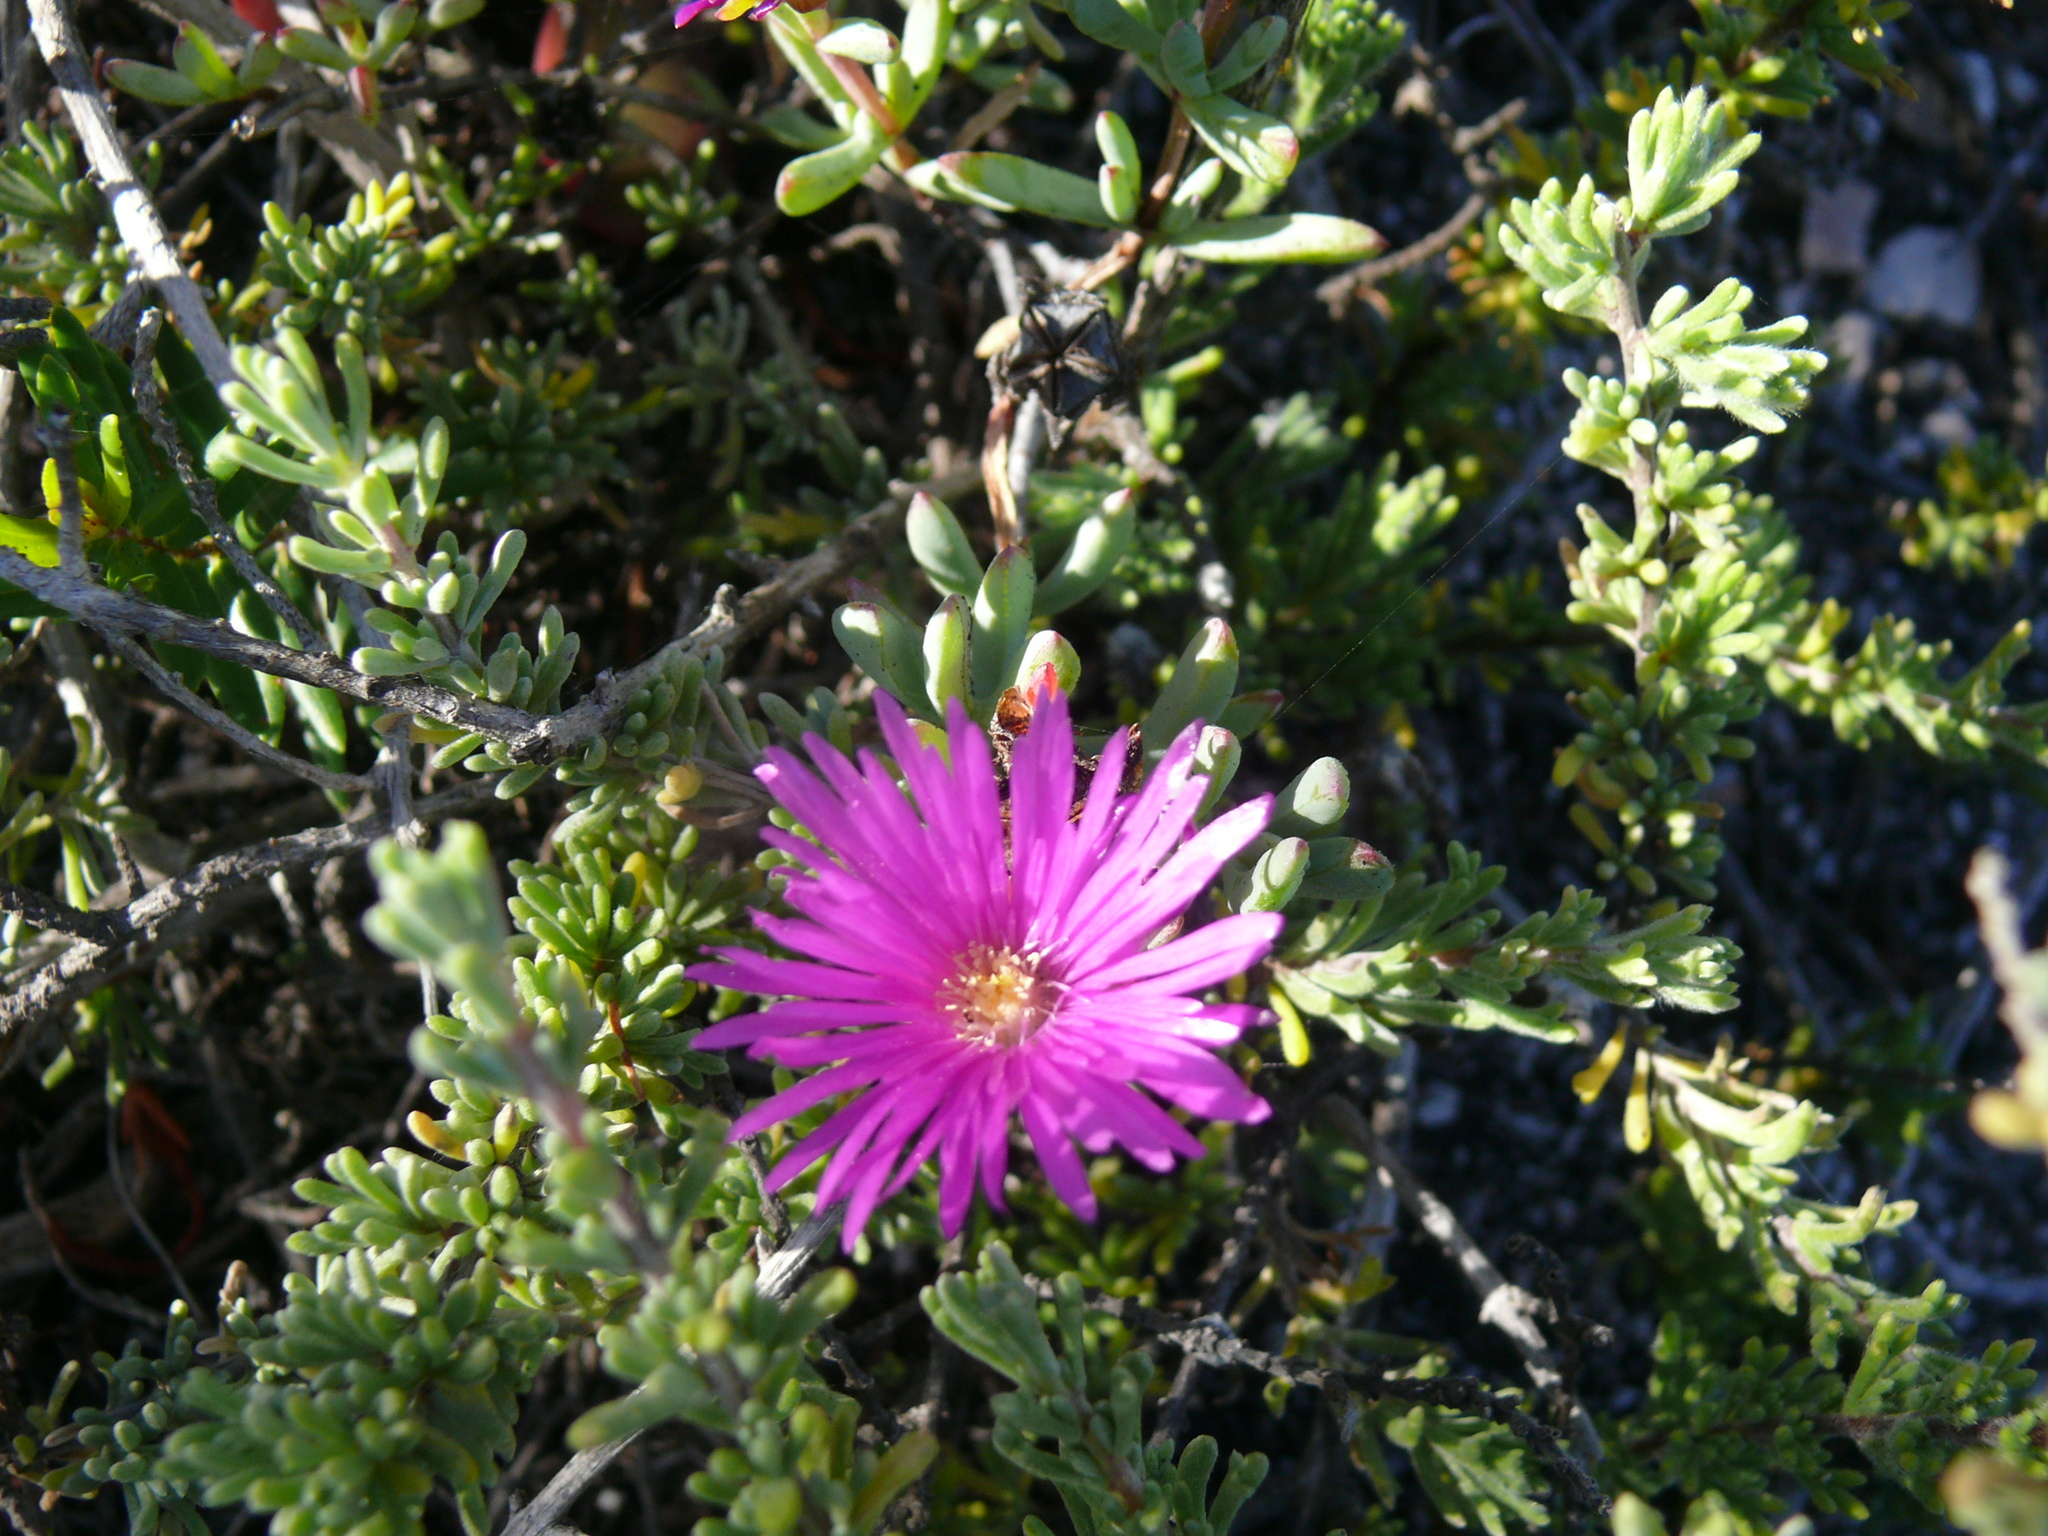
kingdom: Plantae
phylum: Tracheophyta
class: Magnoliopsida
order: Caryophyllales
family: Aizoaceae
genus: Lampranthus
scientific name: Lampranthus pauciflorus
